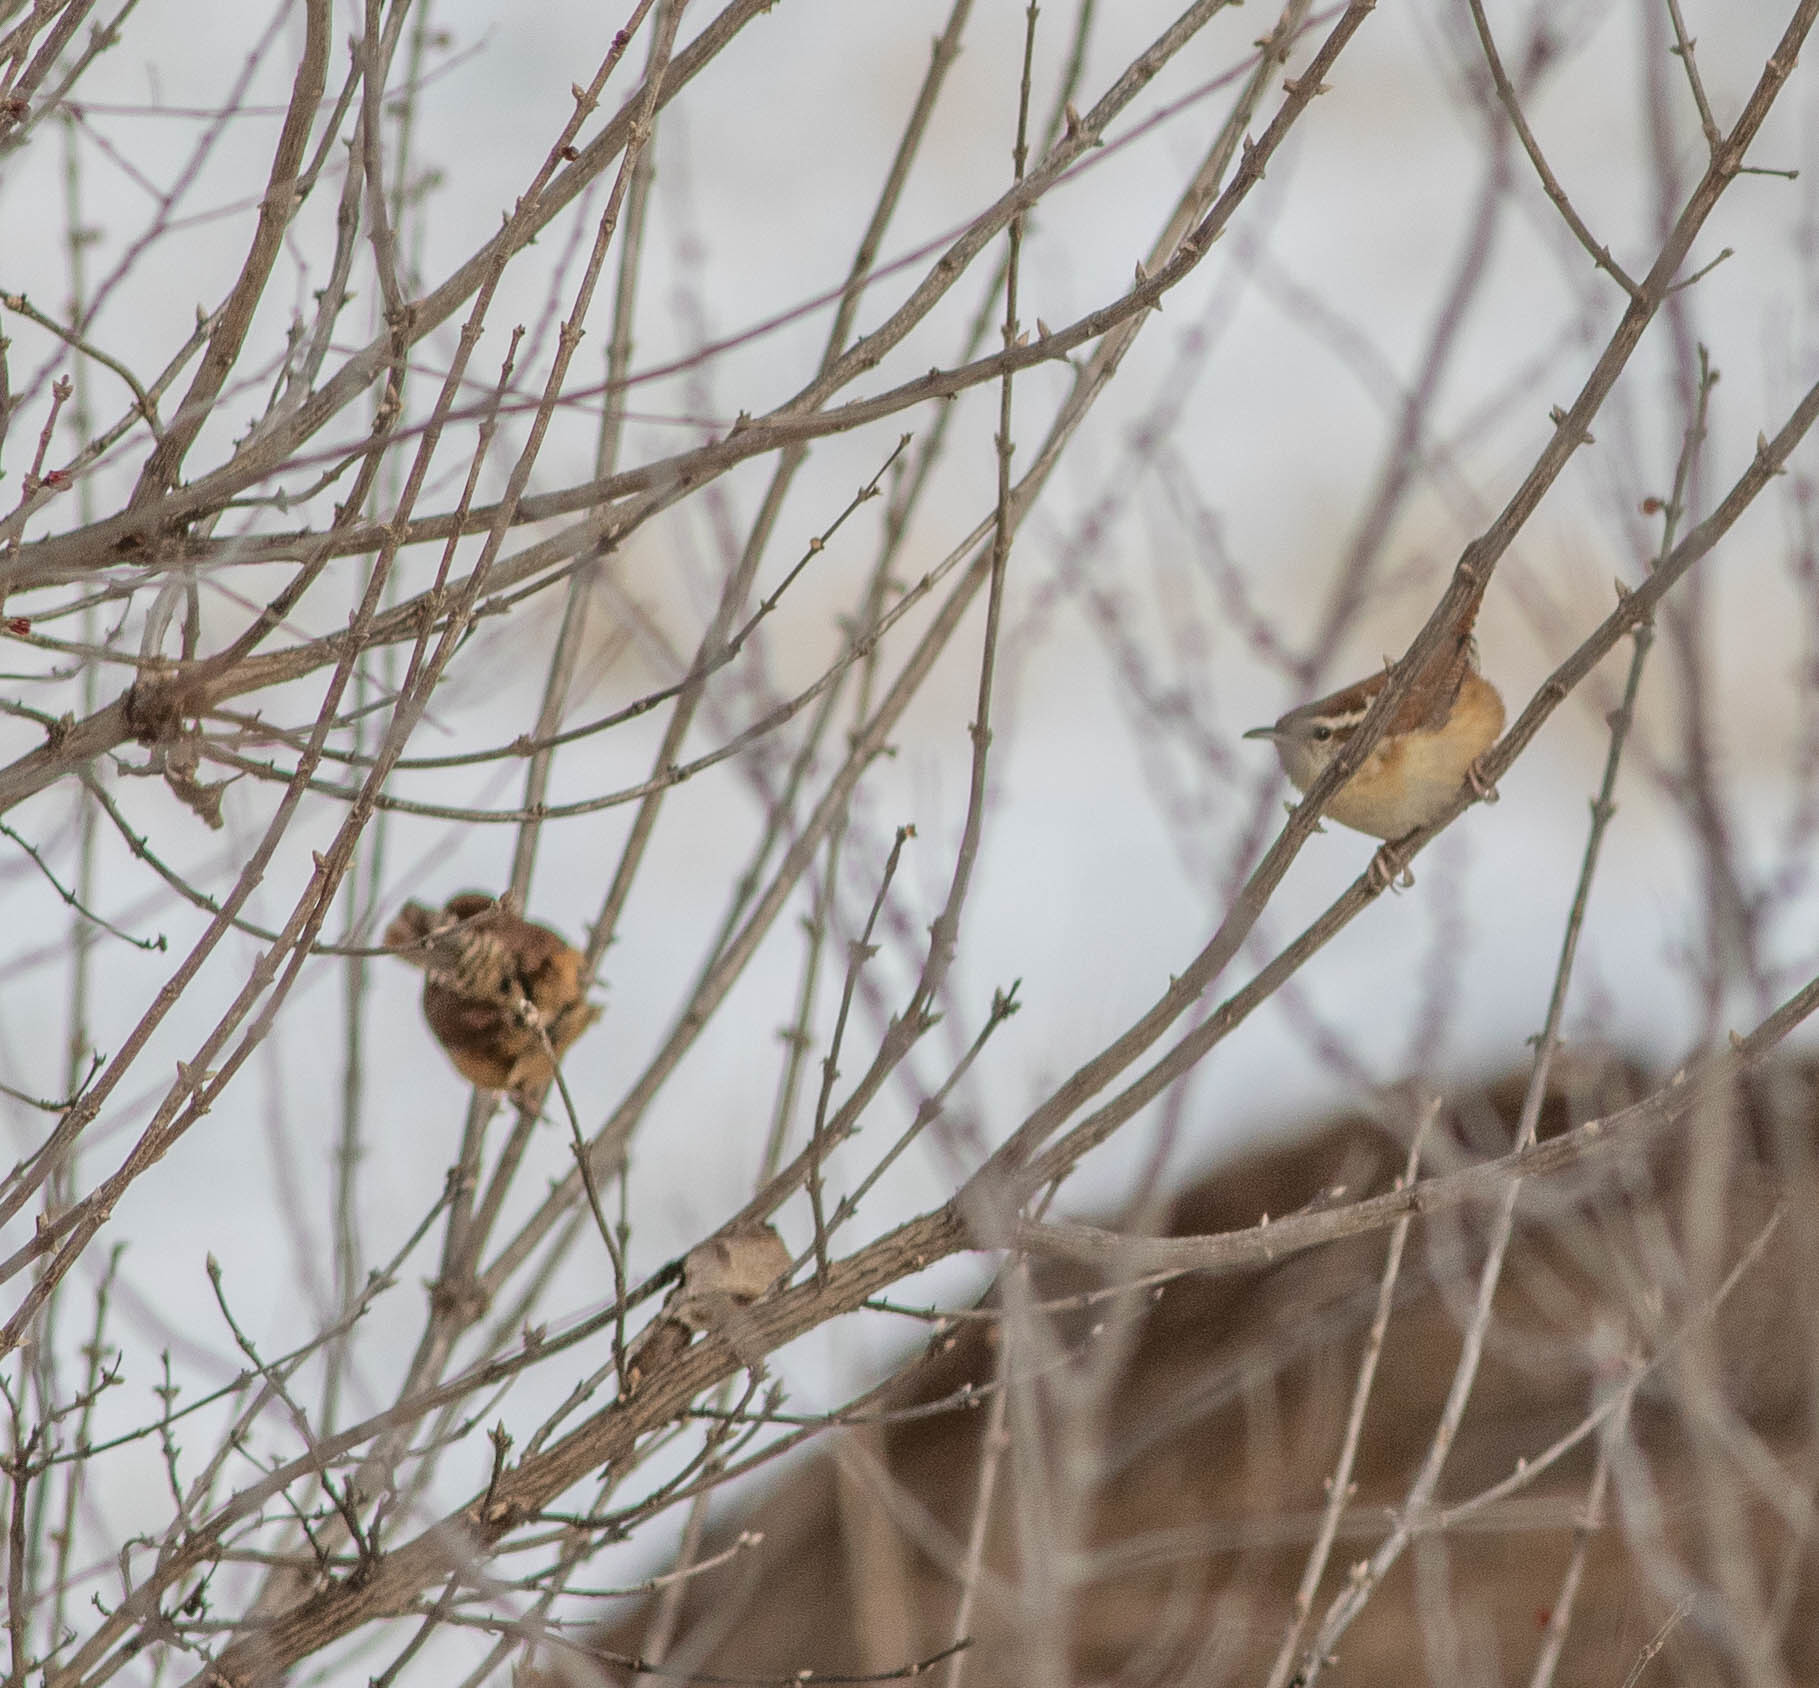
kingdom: Animalia
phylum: Chordata
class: Aves
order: Passeriformes
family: Troglodytidae
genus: Thryothorus
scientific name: Thryothorus ludovicianus
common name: Carolina wren
